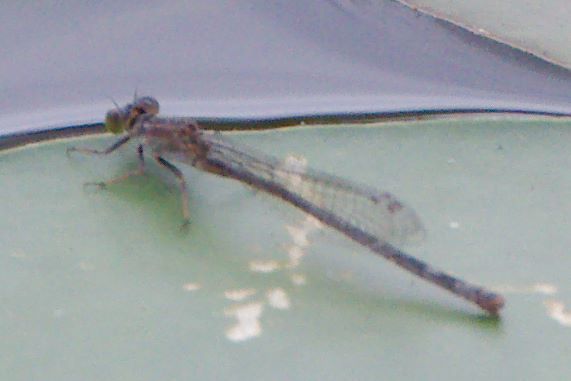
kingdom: Animalia
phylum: Arthropoda
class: Insecta
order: Odonata
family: Coenagrionidae
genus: Ischnura
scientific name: Ischnura ramburii
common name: Rambur's forktail
